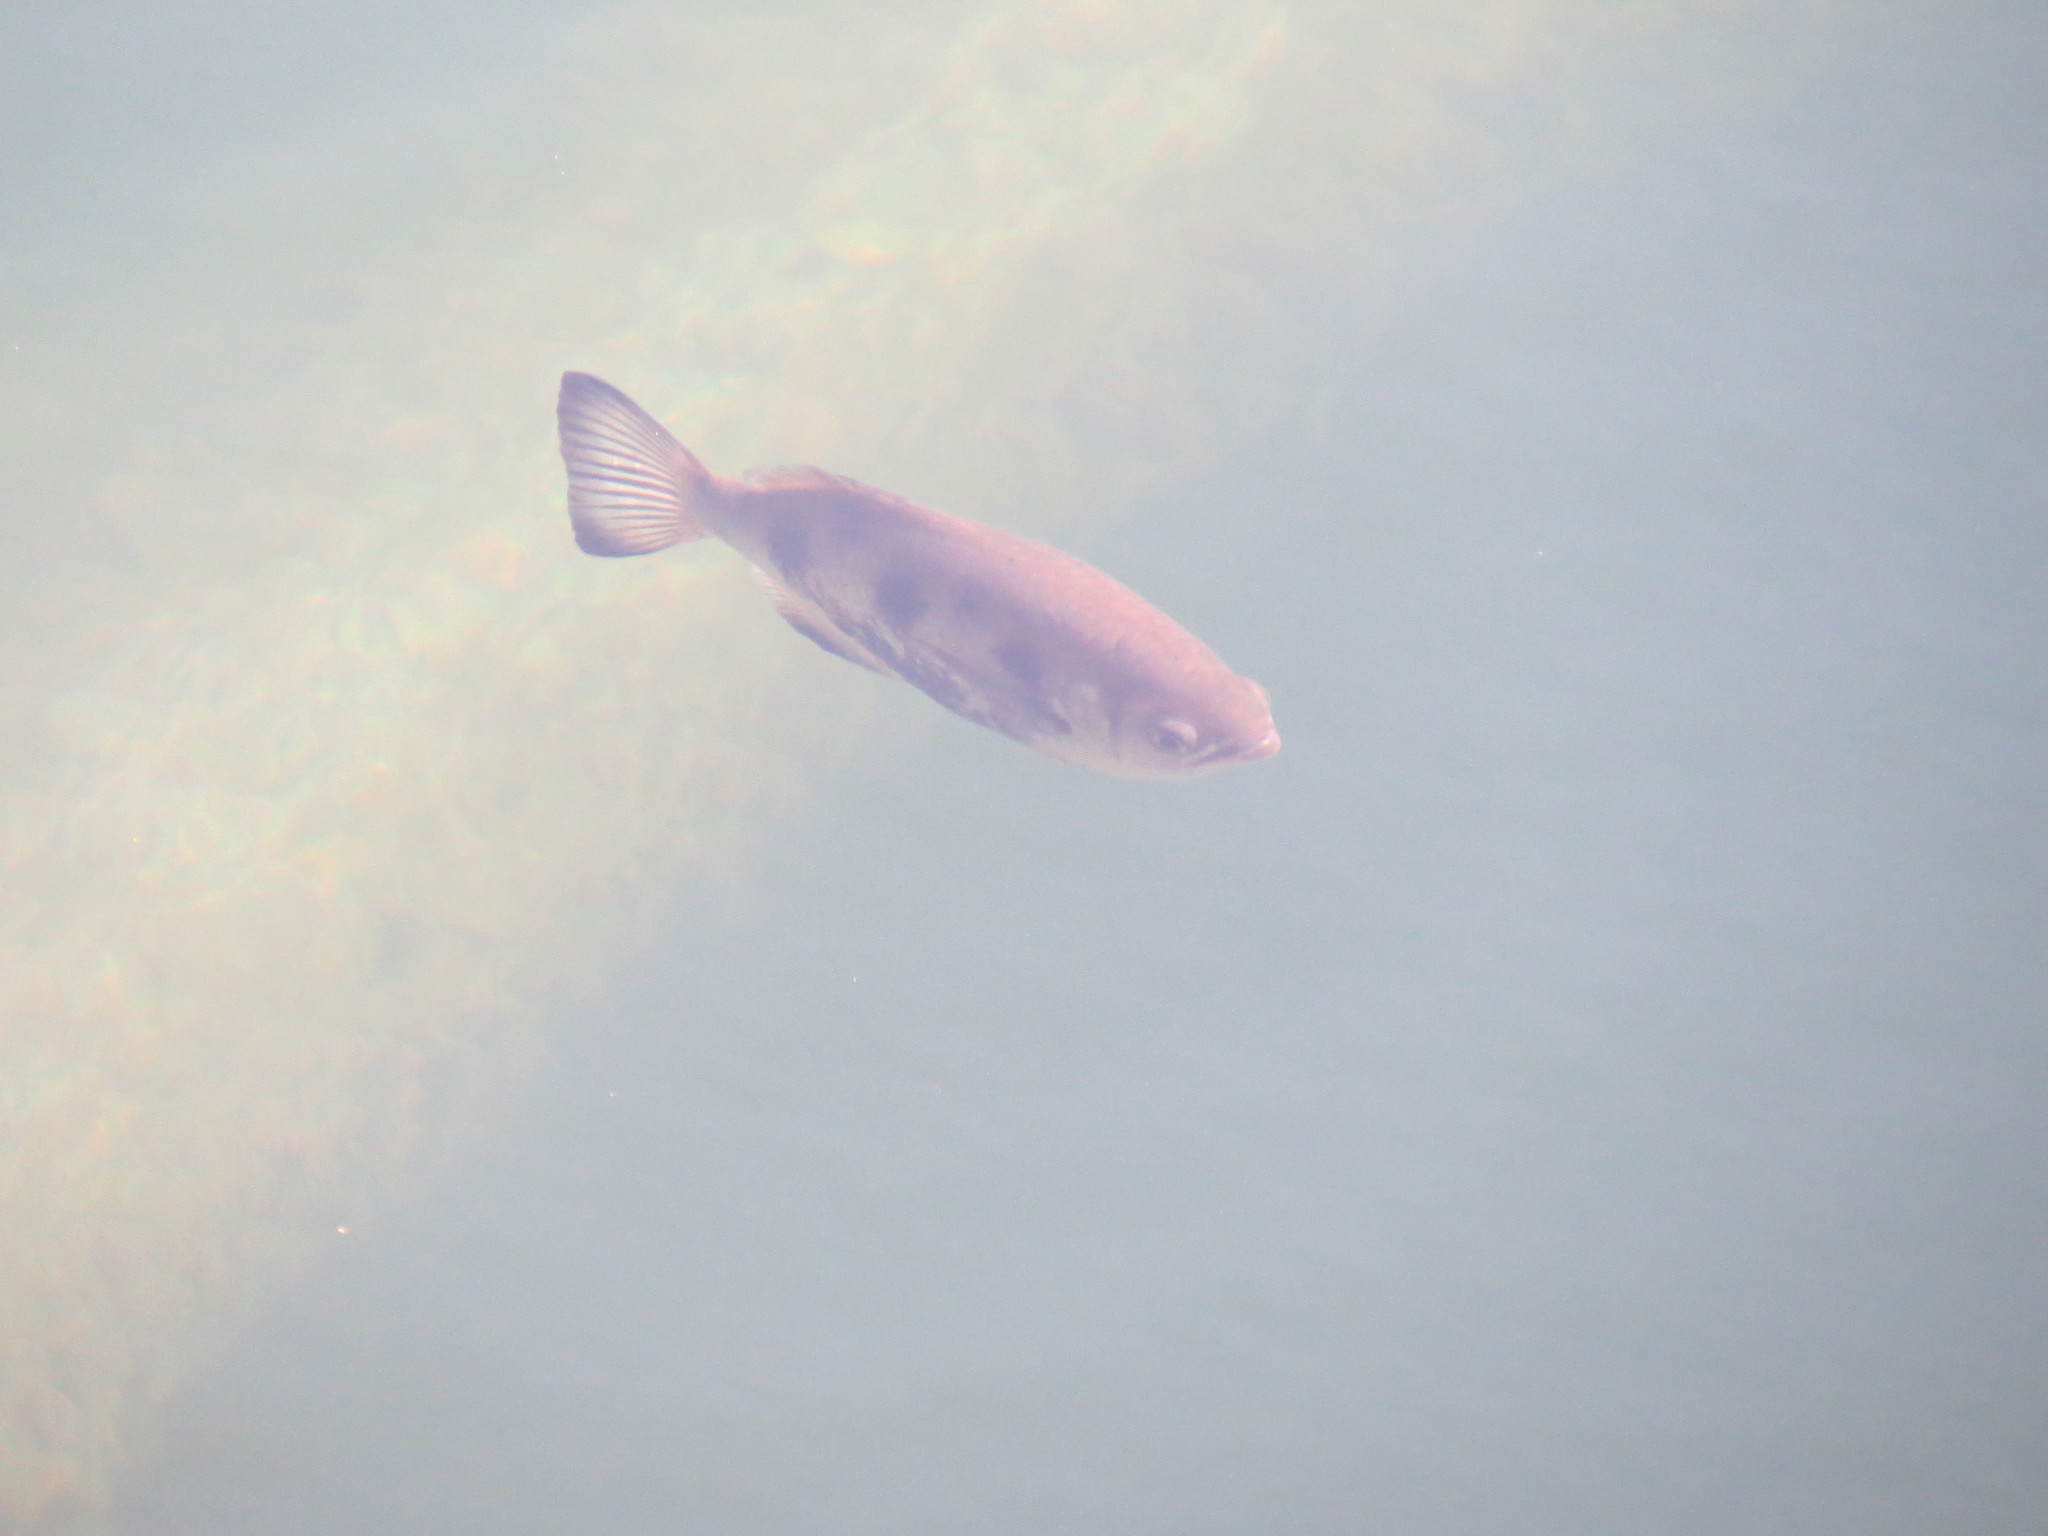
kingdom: Animalia
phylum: Chordata
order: Perciformes
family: Toxotidae
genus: Toxotes
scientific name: Toxotes chatareus
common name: Spotted archerfish
